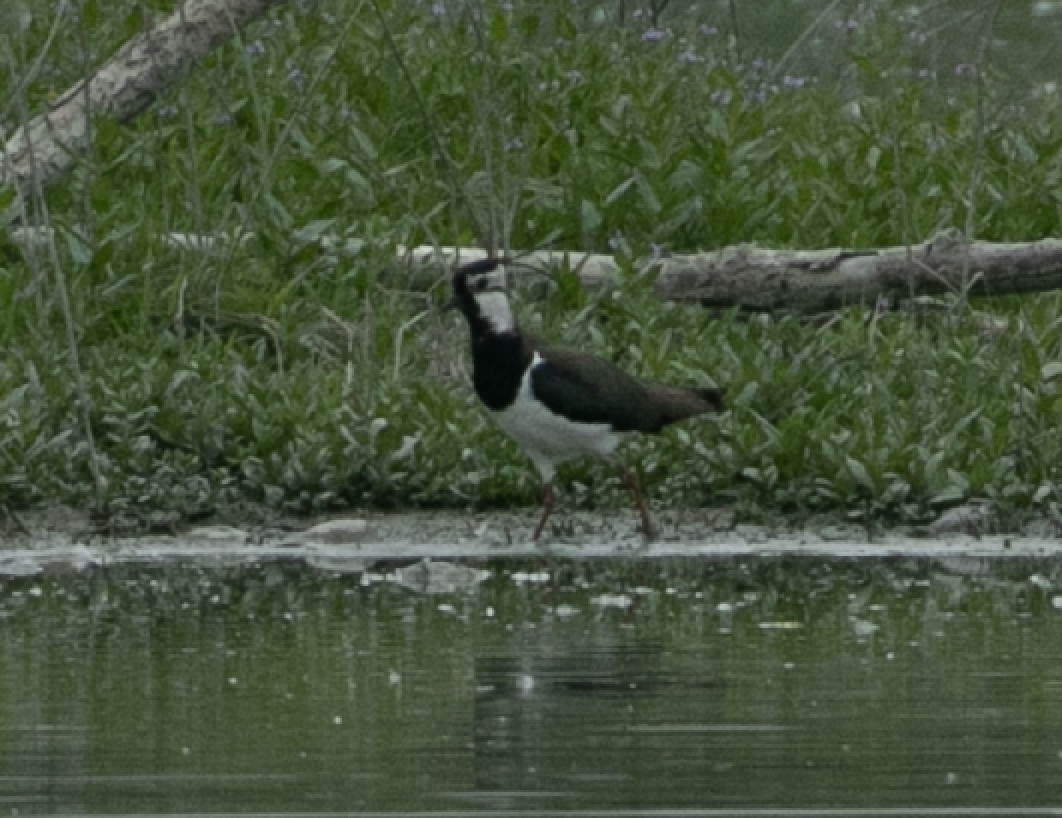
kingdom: Animalia
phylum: Chordata
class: Aves
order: Charadriiformes
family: Charadriidae
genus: Vanellus
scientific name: Vanellus vanellus
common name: Northern lapwing
